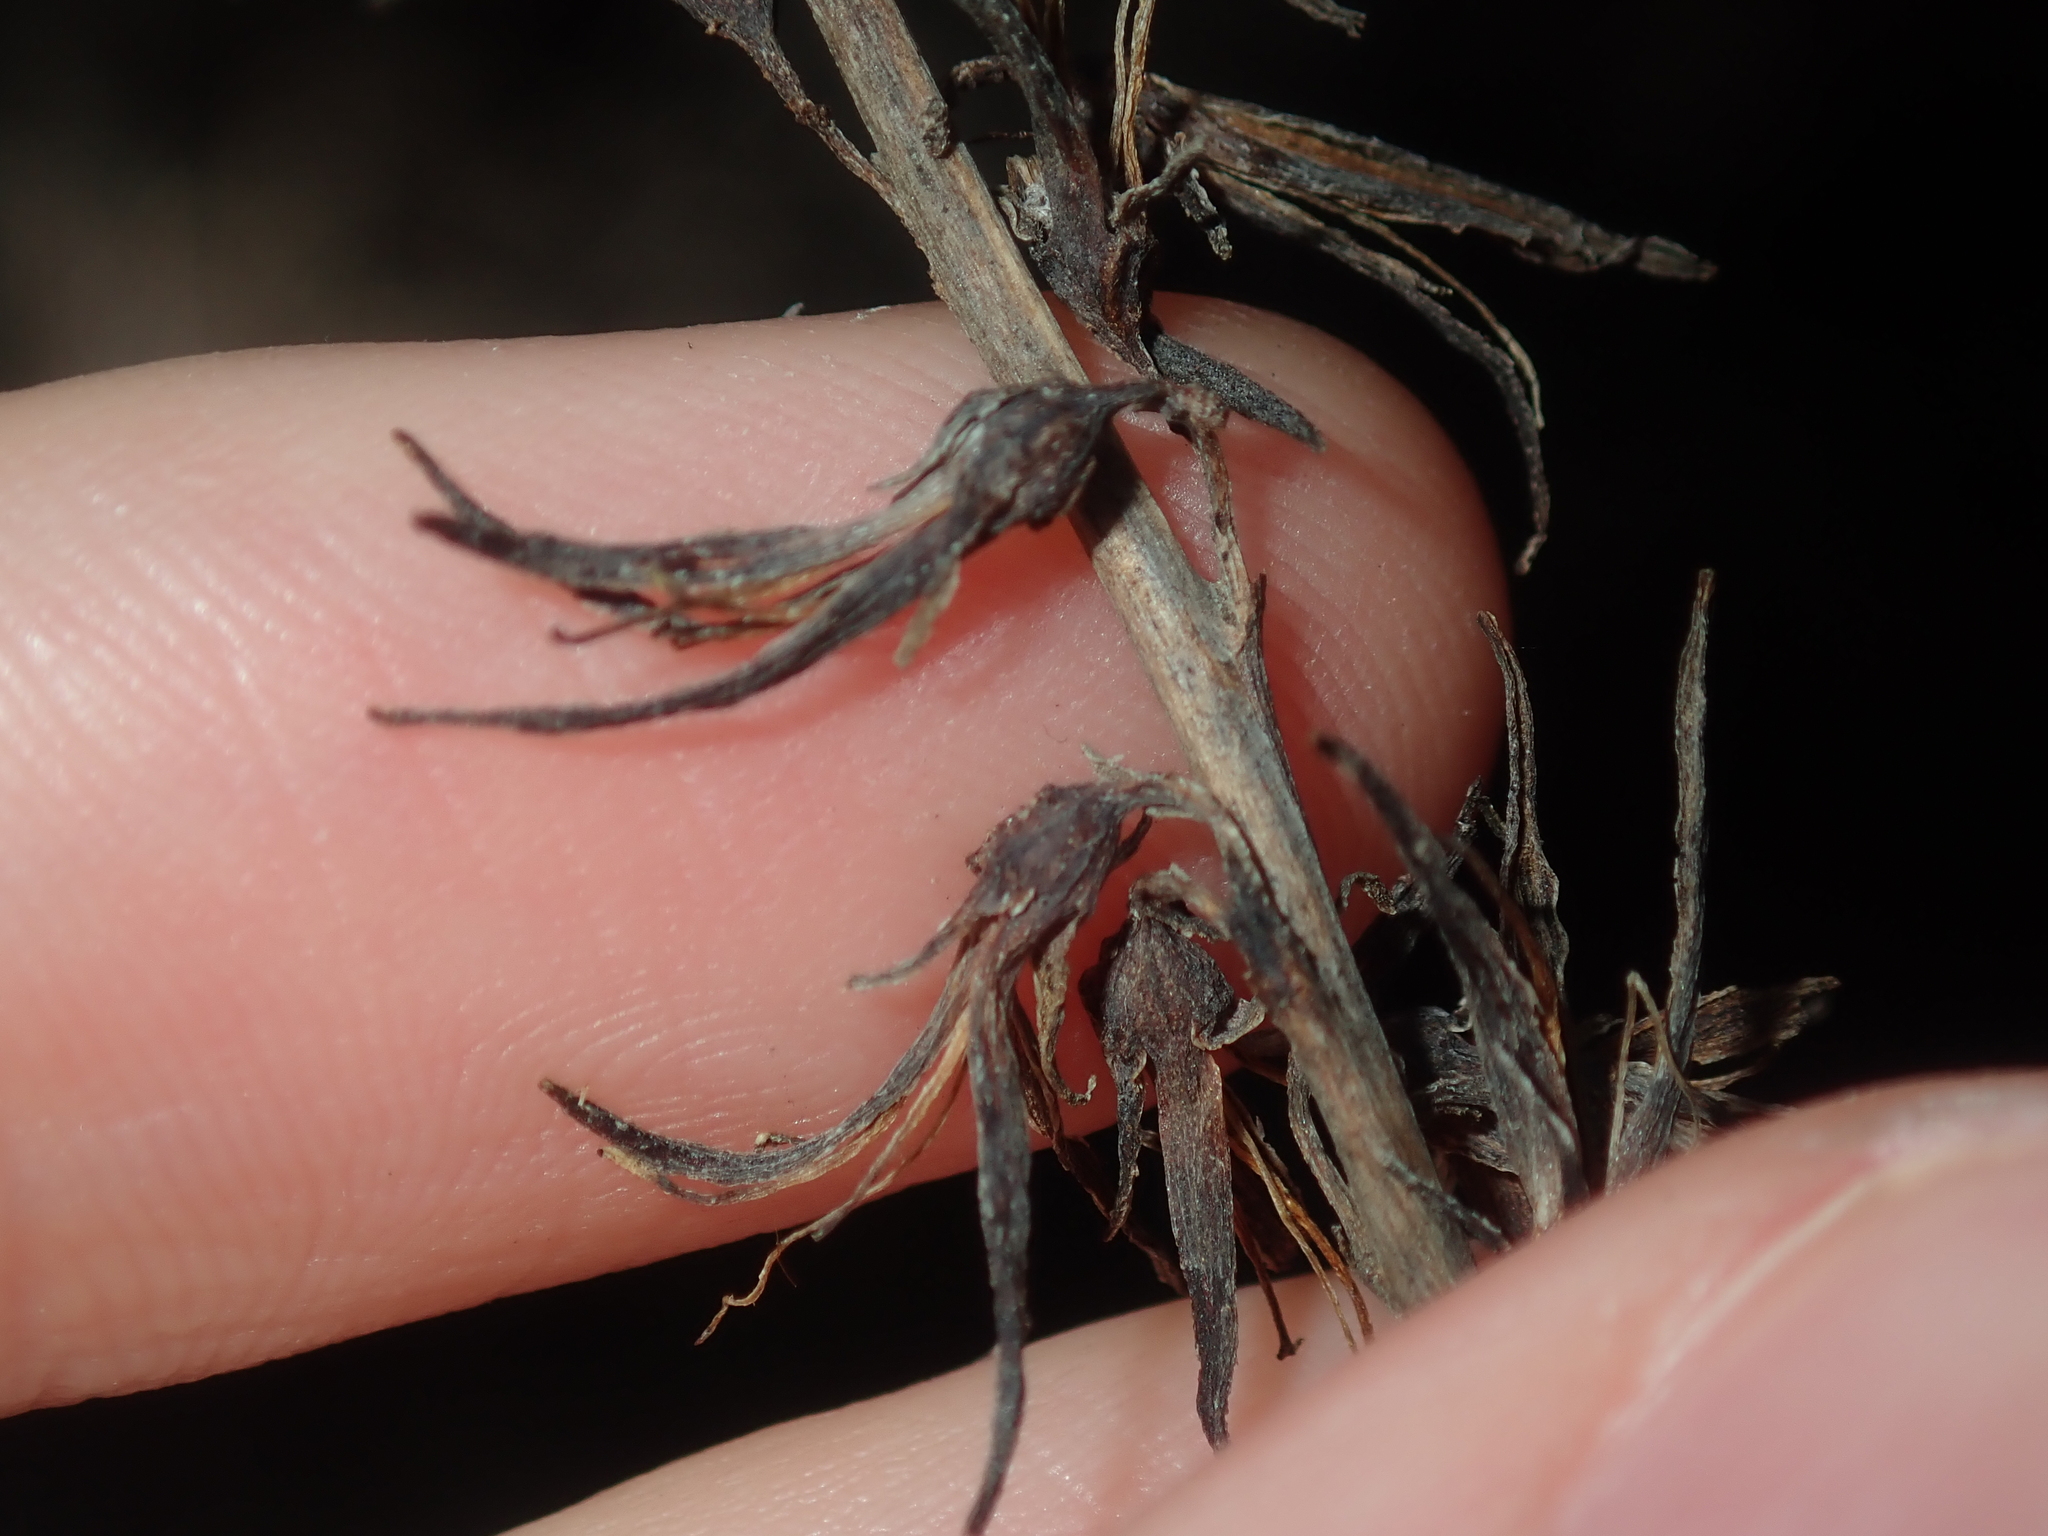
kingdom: Plantae
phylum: Tracheophyta
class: Liliopsida
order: Commelinales
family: Haemodoraceae
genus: Haemodorum
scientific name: Haemodorum spicatum
